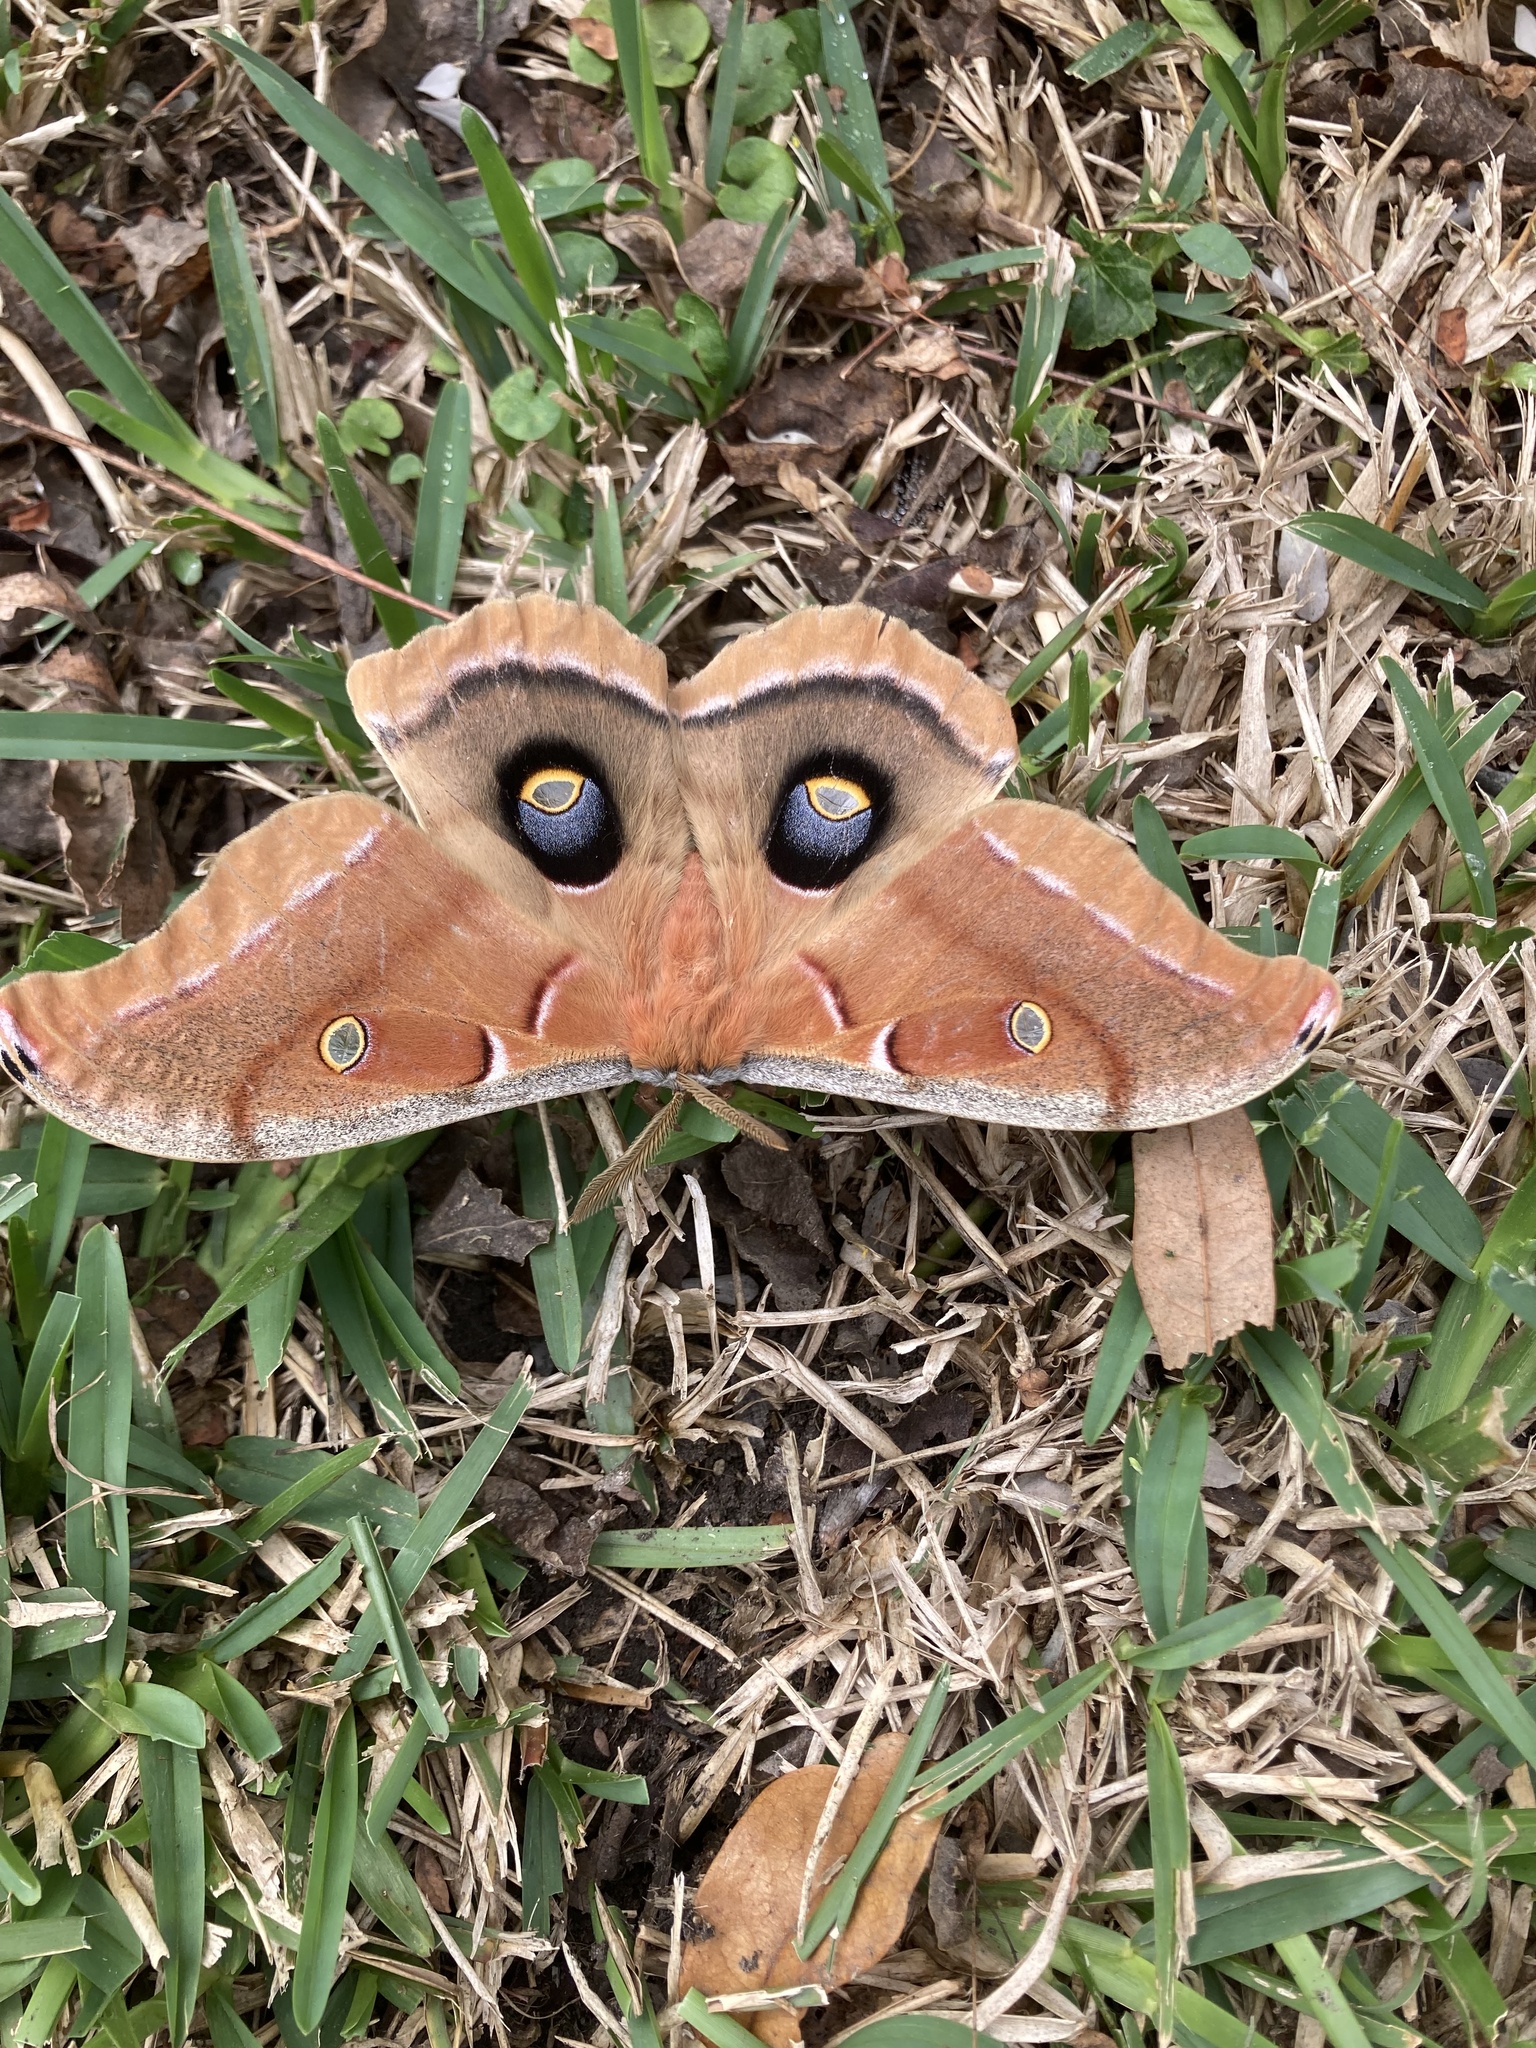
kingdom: Animalia
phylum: Arthropoda
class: Insecta
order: Lepidoptera
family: Saturniidae
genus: Antheraea
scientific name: Antheraea polyphemus
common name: Polyphemus moth
